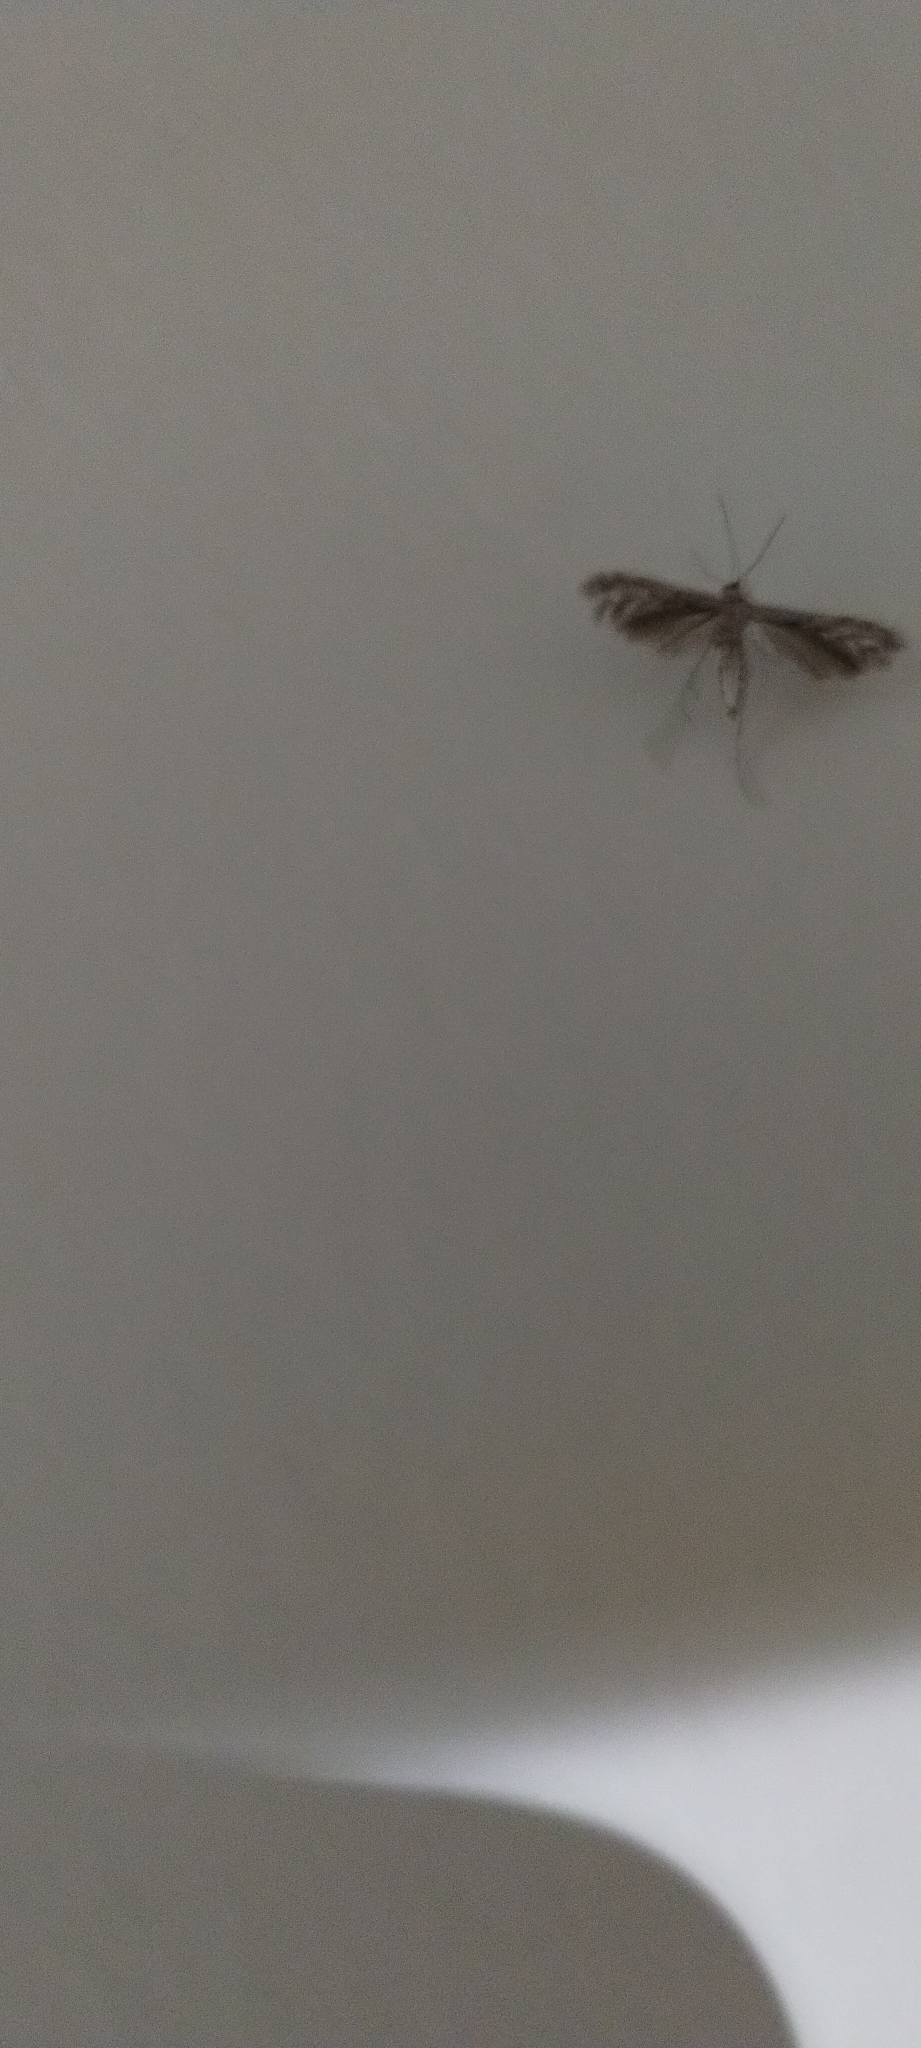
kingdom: Animalia
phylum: Arthropoda
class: Insecta
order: Lepidoptera
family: Pterophoridae
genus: Singularia
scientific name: Singularia alternaria
